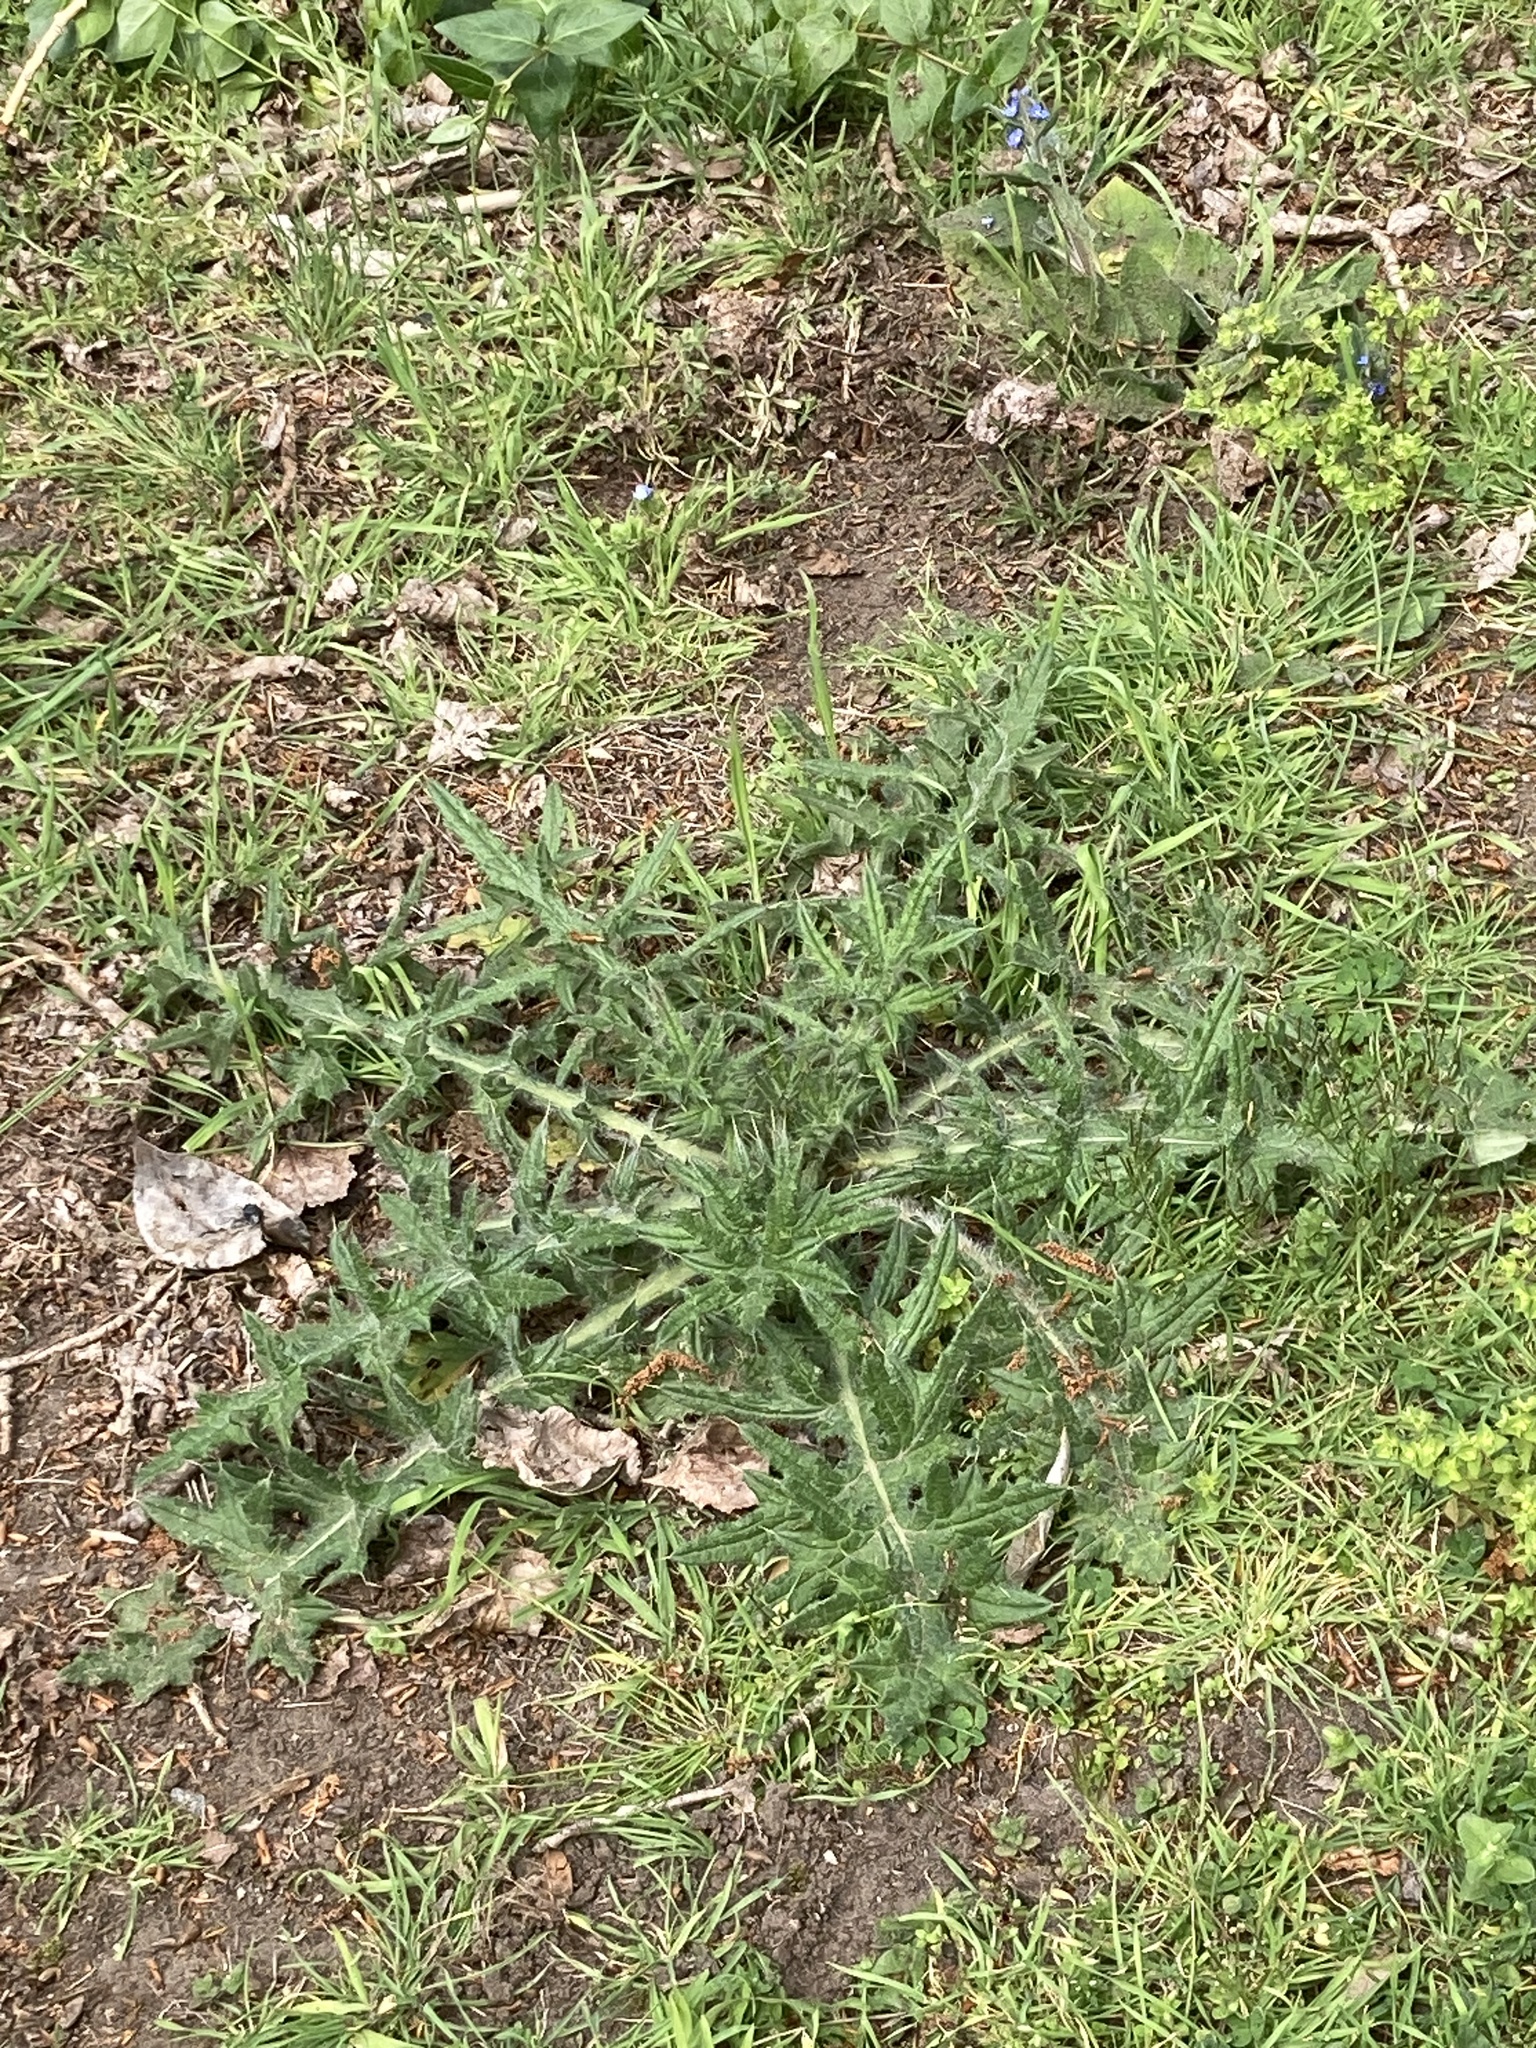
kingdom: Plantae
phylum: Tracheophyta
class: Magnoliopsida
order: Asterales
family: Asteraceae
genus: Cirsium
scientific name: Cirsium vulgare
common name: Bull thistle
